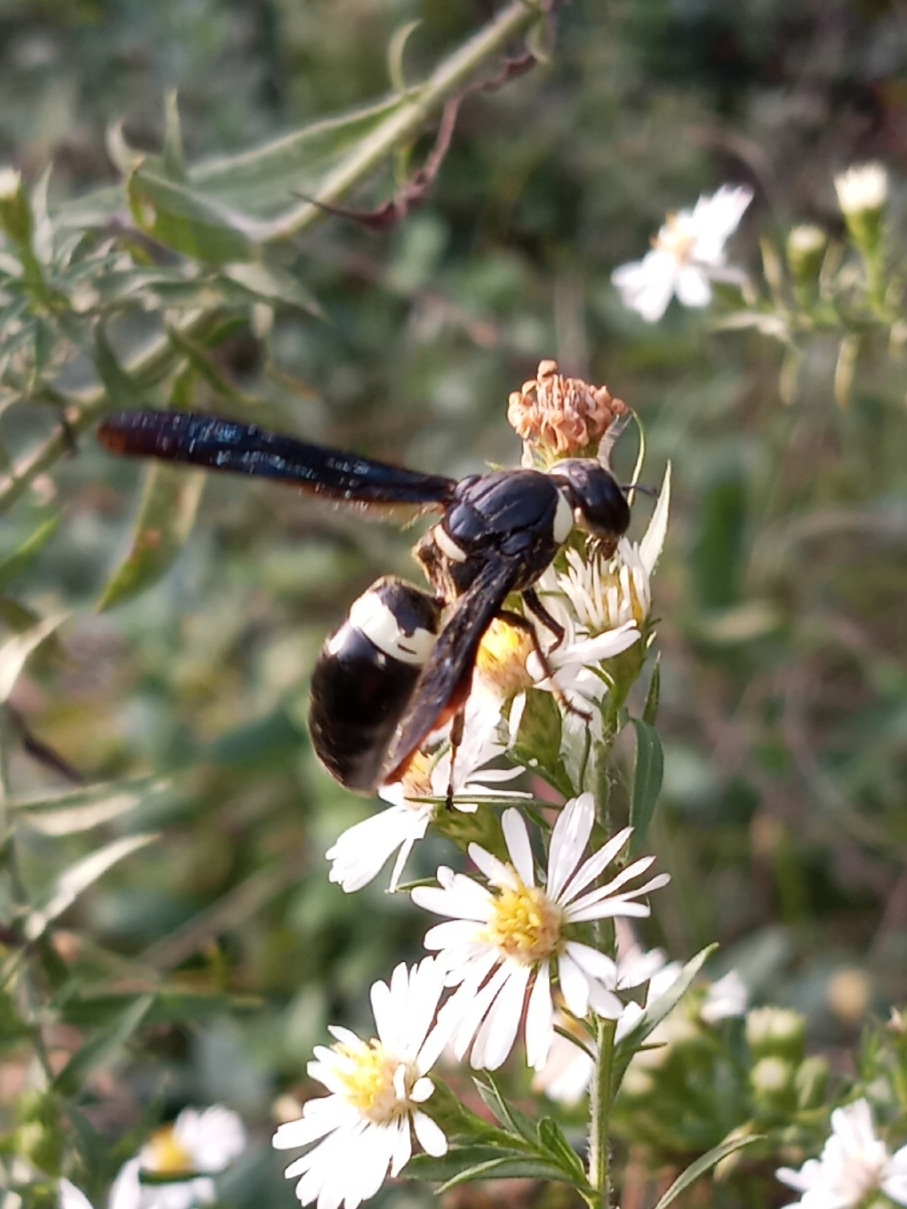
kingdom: Animalia
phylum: Arthropoda
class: Insecta
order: Hymenoptera
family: Eumenidae
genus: Monobia
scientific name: Monobia quadridens
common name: Four-toothed mason wasp
